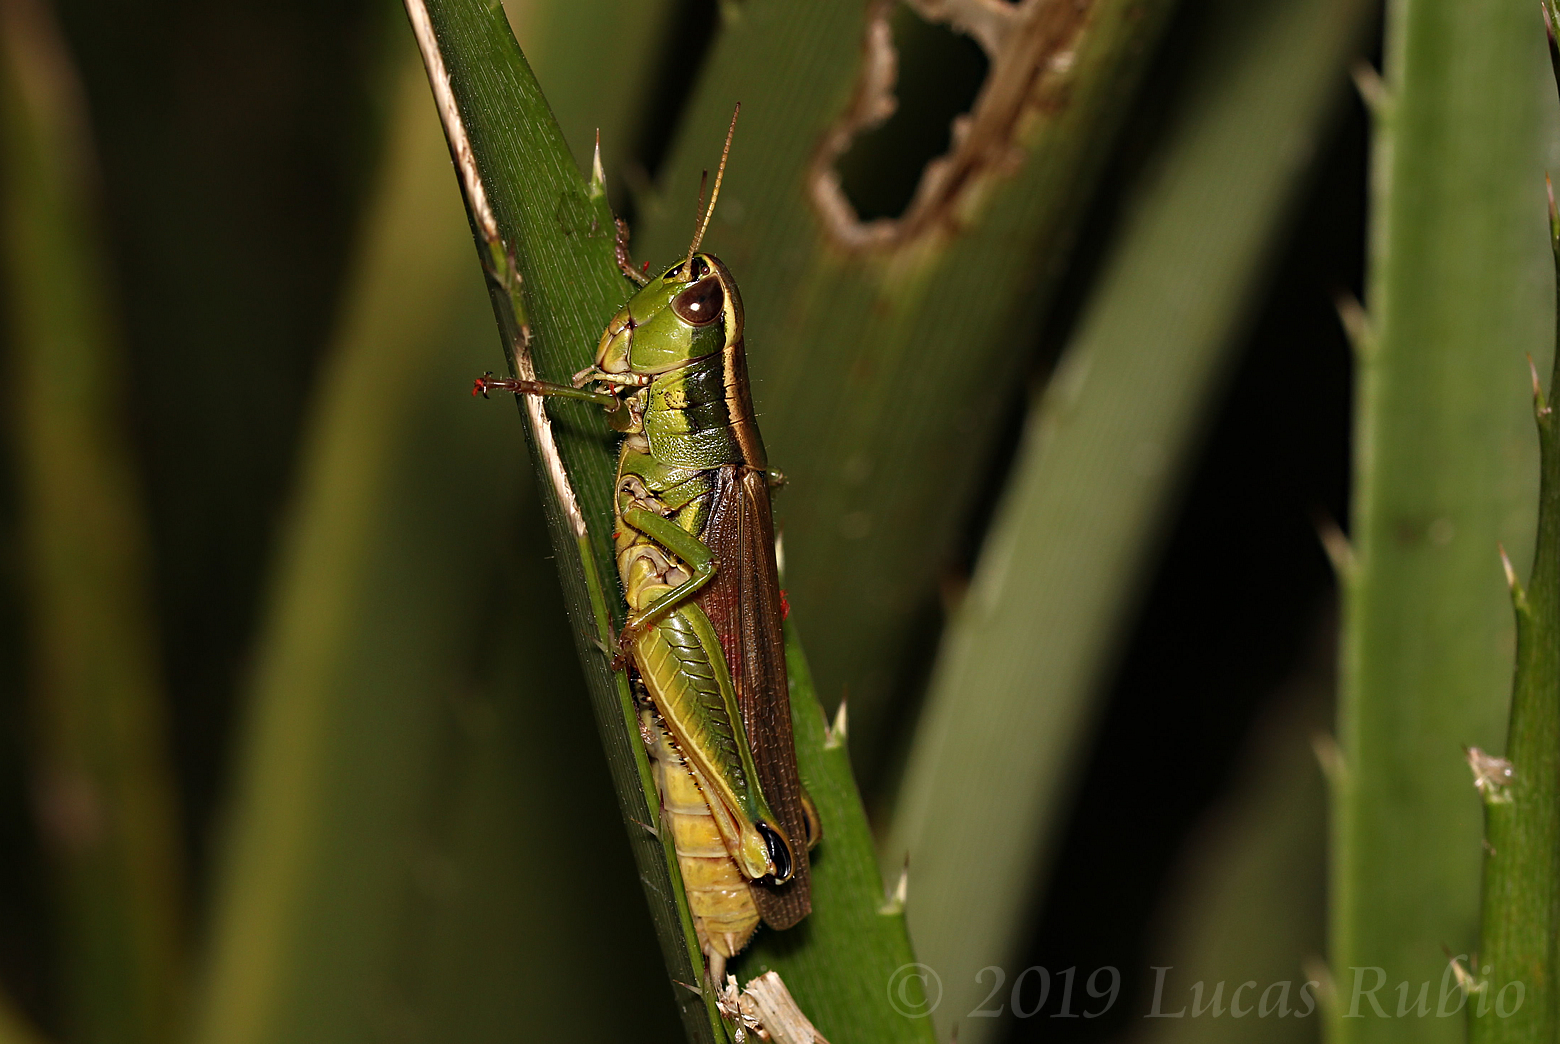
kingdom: Animalia
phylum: Arthropoda
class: Insecta
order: Orthoptera
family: Acrididae
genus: Scotussa
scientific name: Scotussa cliens
